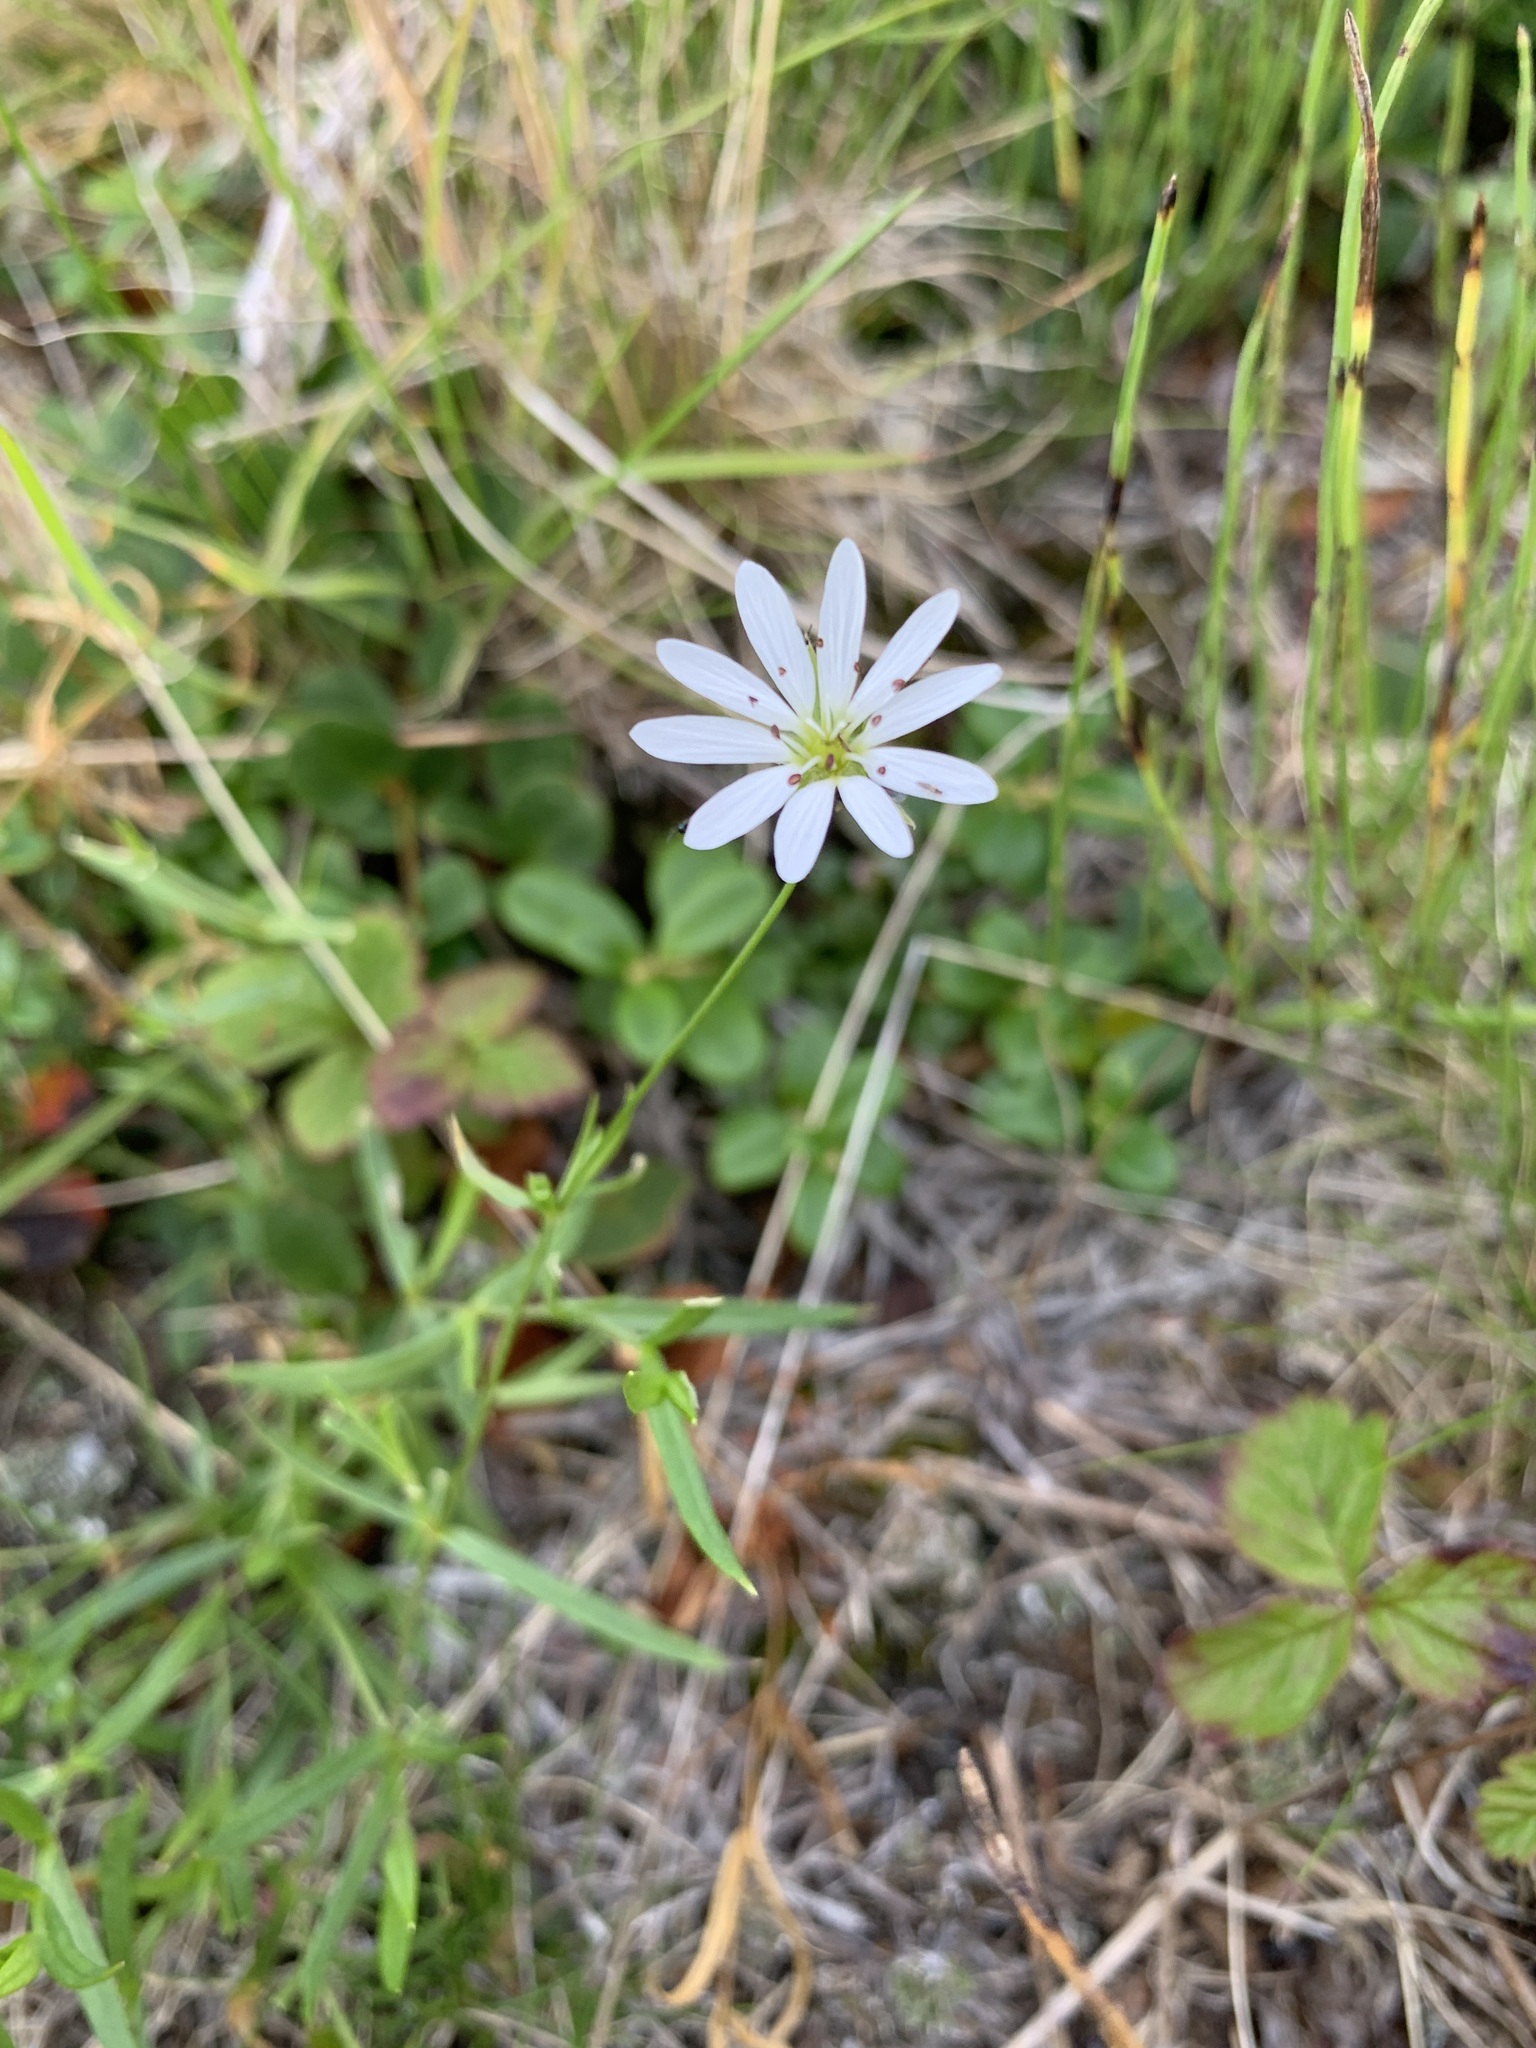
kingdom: Plantae
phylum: Tracheophyta
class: Magnoliopsida
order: Caryophyllales
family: Caryophyllaceae
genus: Stellaria
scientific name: Stellaria peduncularis
